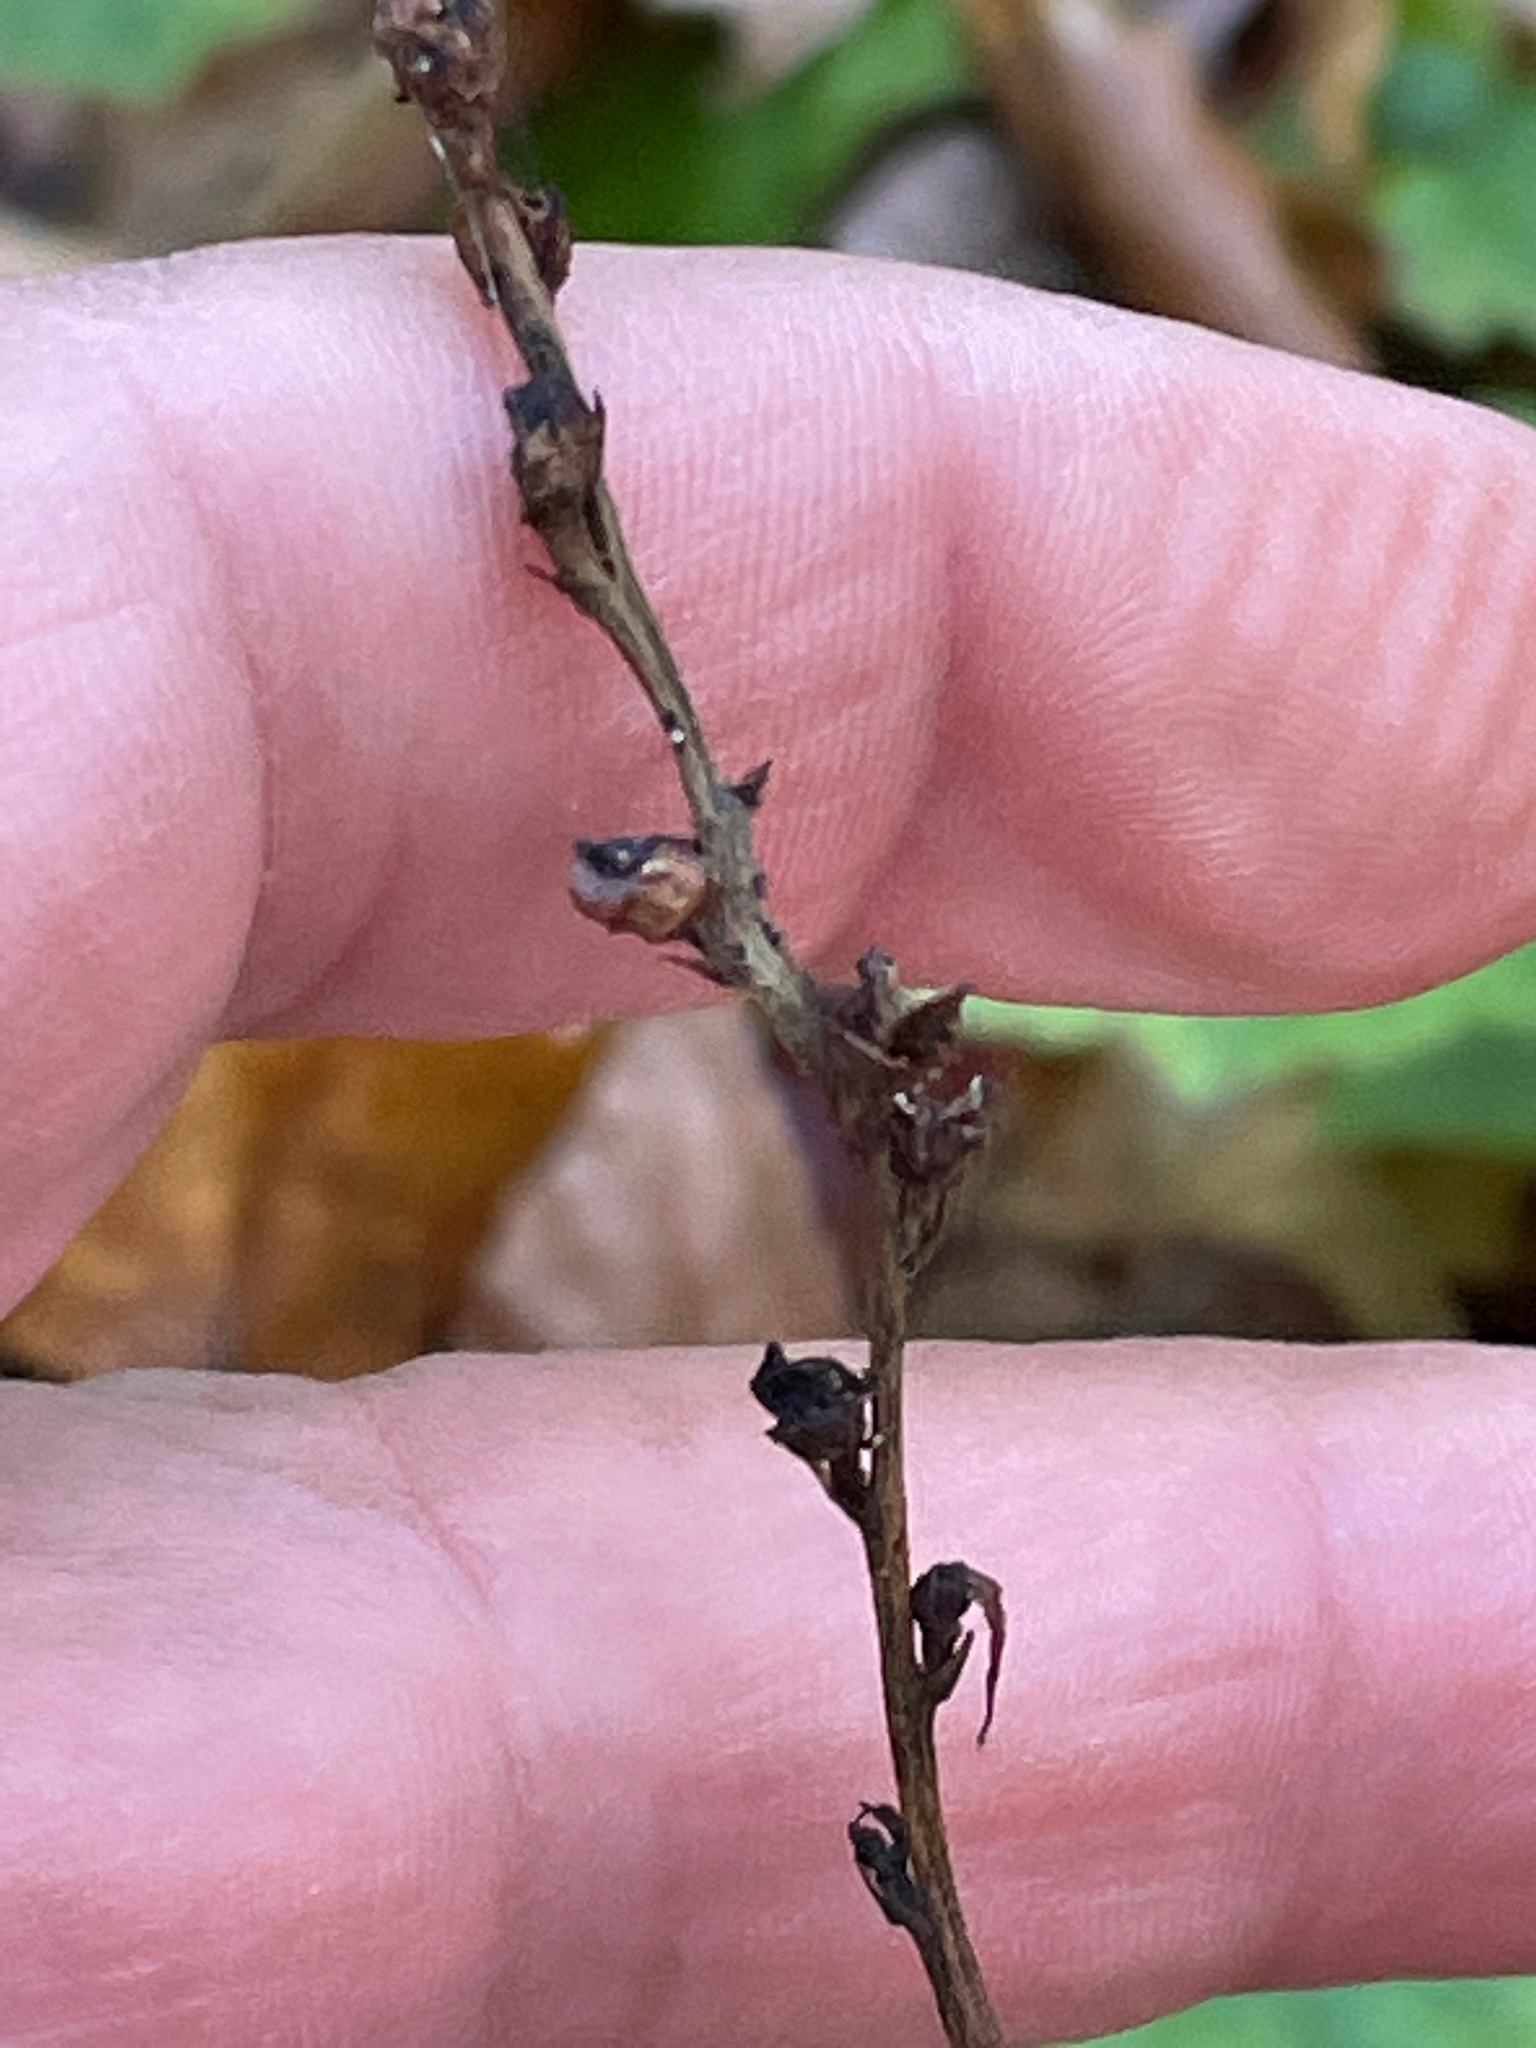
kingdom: Plantae
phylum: Tracheophyta
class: Magnoliopsida
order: Lamiales
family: Orobanchaceae
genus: Epifagus
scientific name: Epifagus virginiana
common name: Beechdrops
